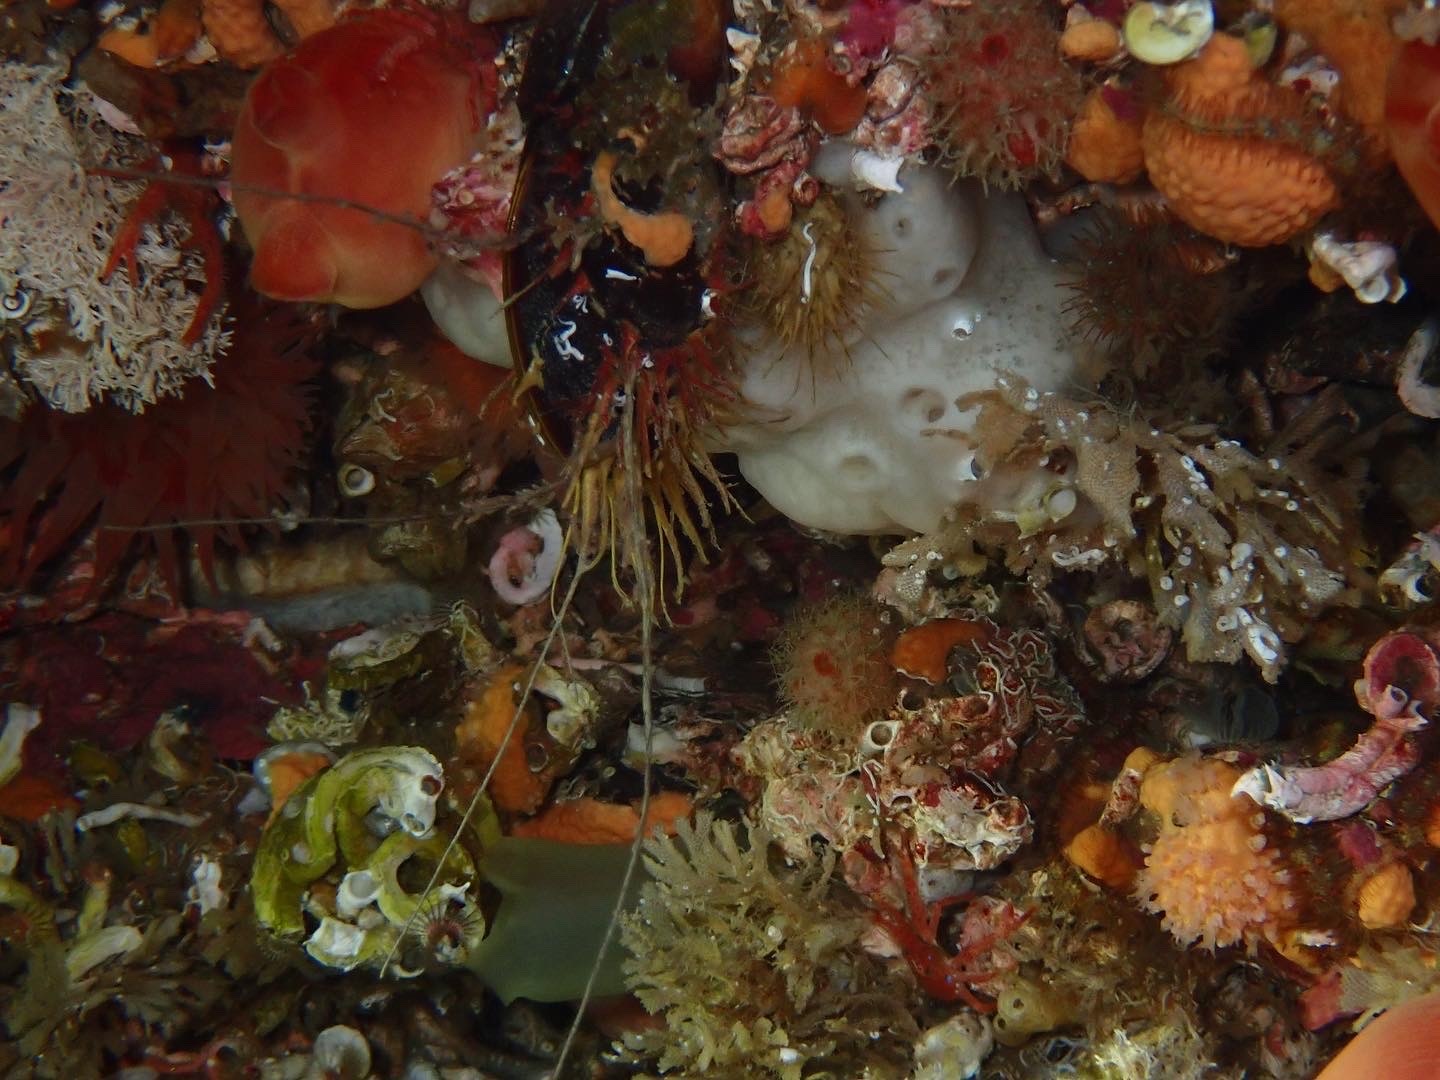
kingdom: Animalia
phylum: Mollusca
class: Bivalvia
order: Mytilida
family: Mytilidae
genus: Modiolus
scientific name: Modiolus modiolus
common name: Horse-mussel
